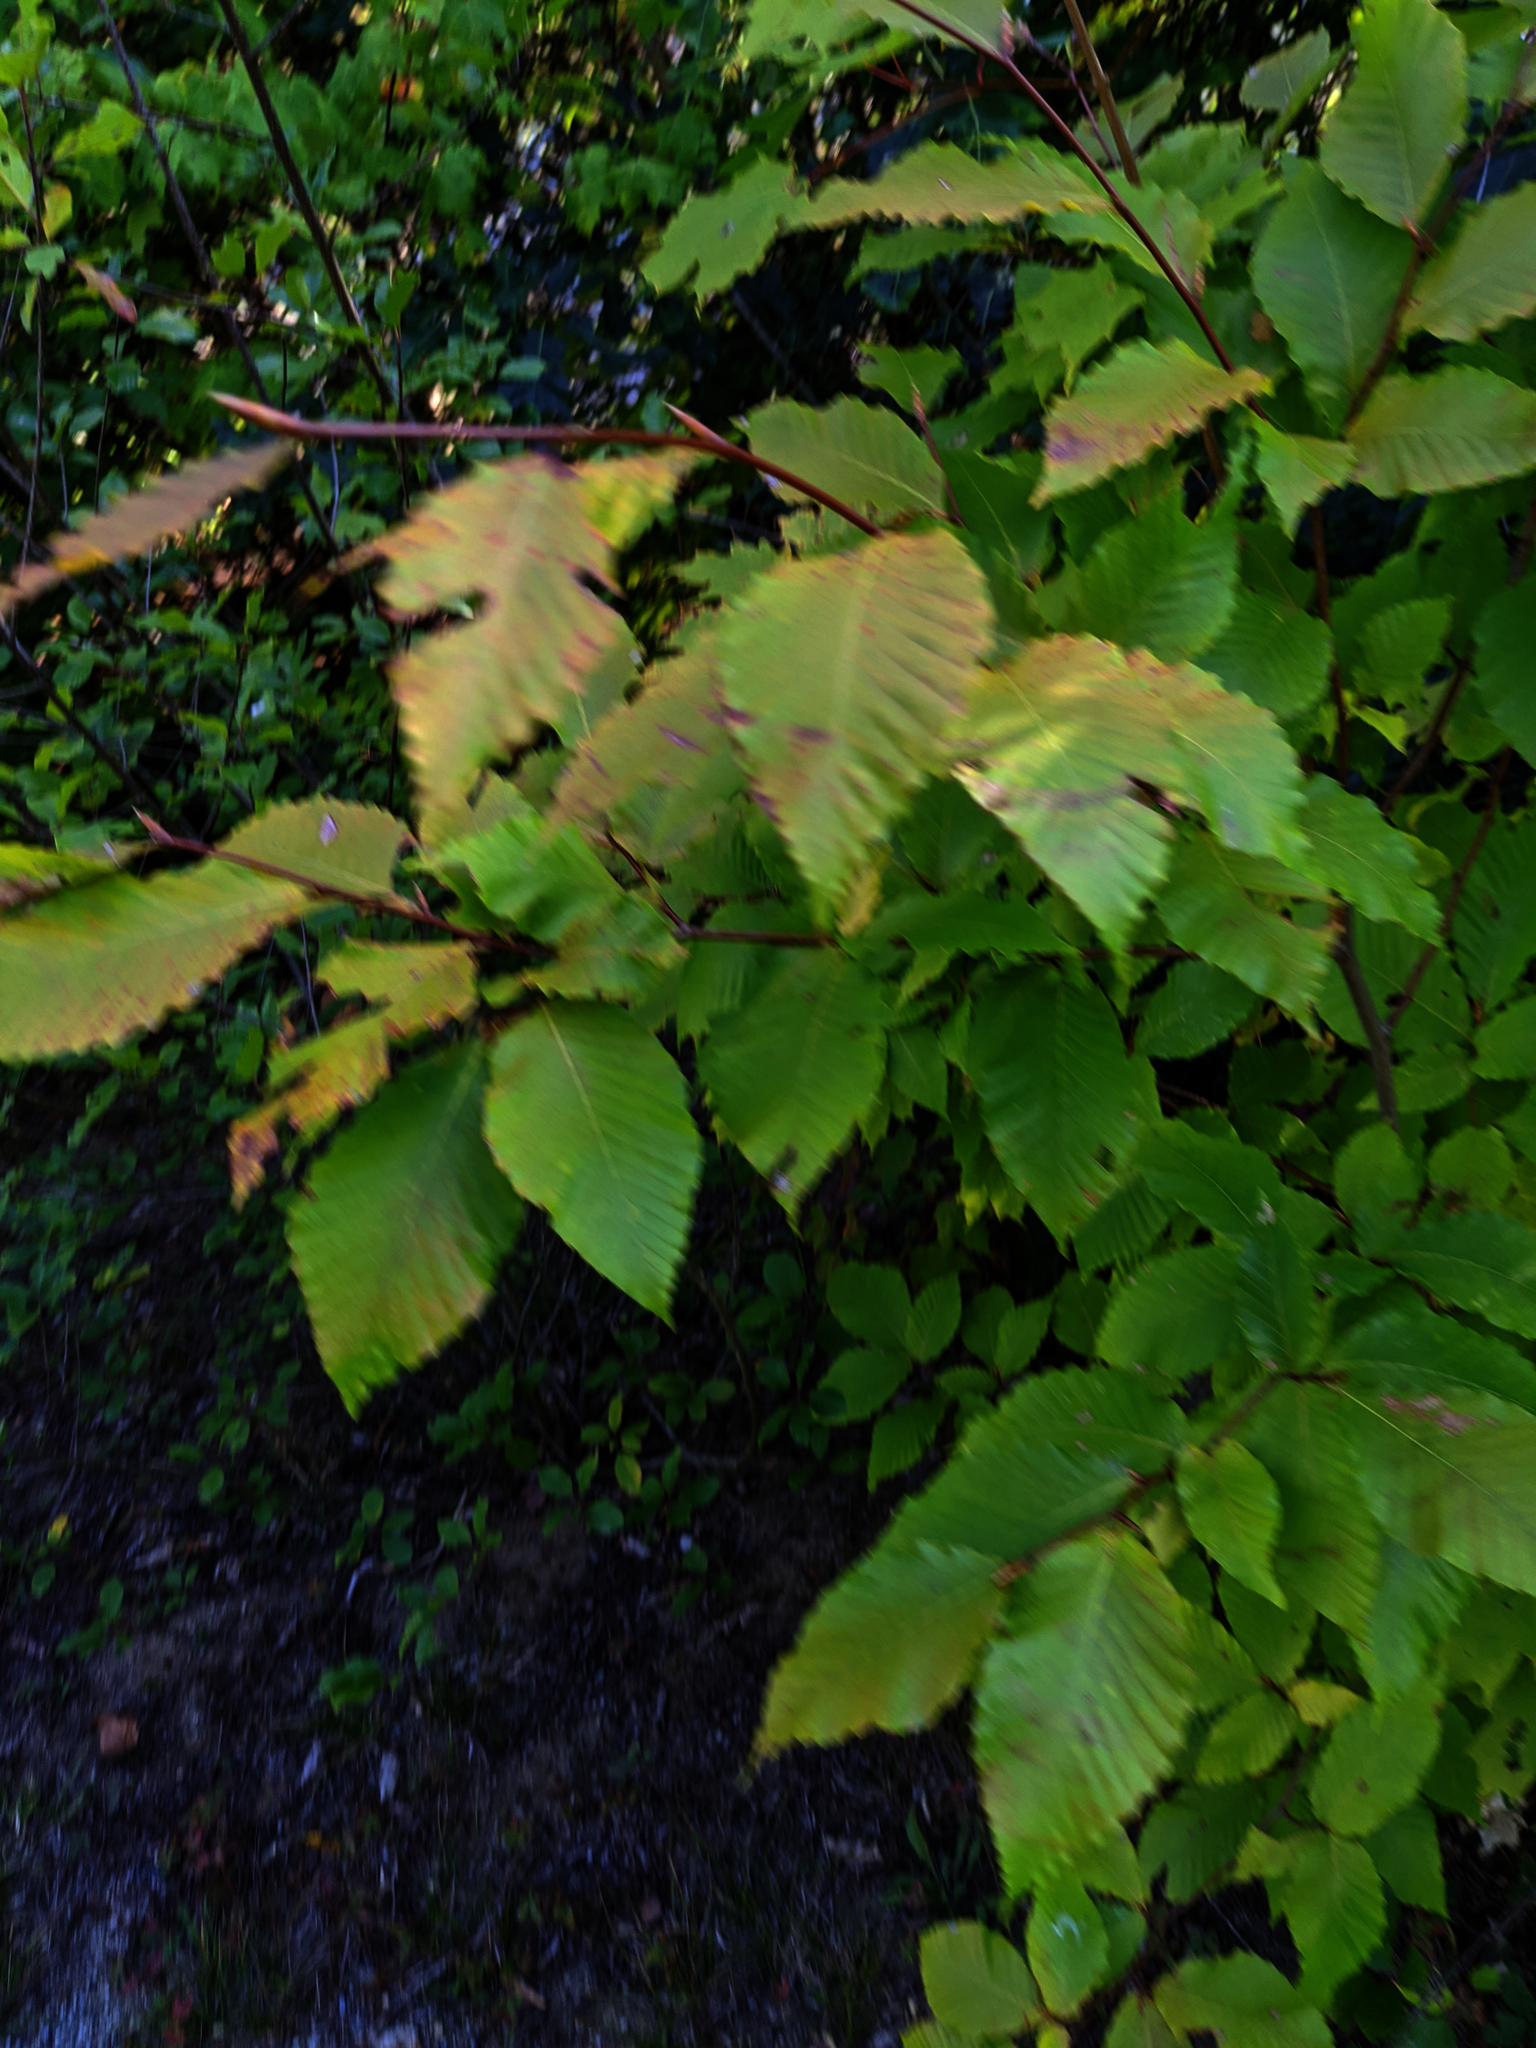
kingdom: Plantae
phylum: Tracheophyta
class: Magnoliopsida
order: Fagales
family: Fagaceae
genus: Fagus
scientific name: Fagus grandifolia
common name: American beech
